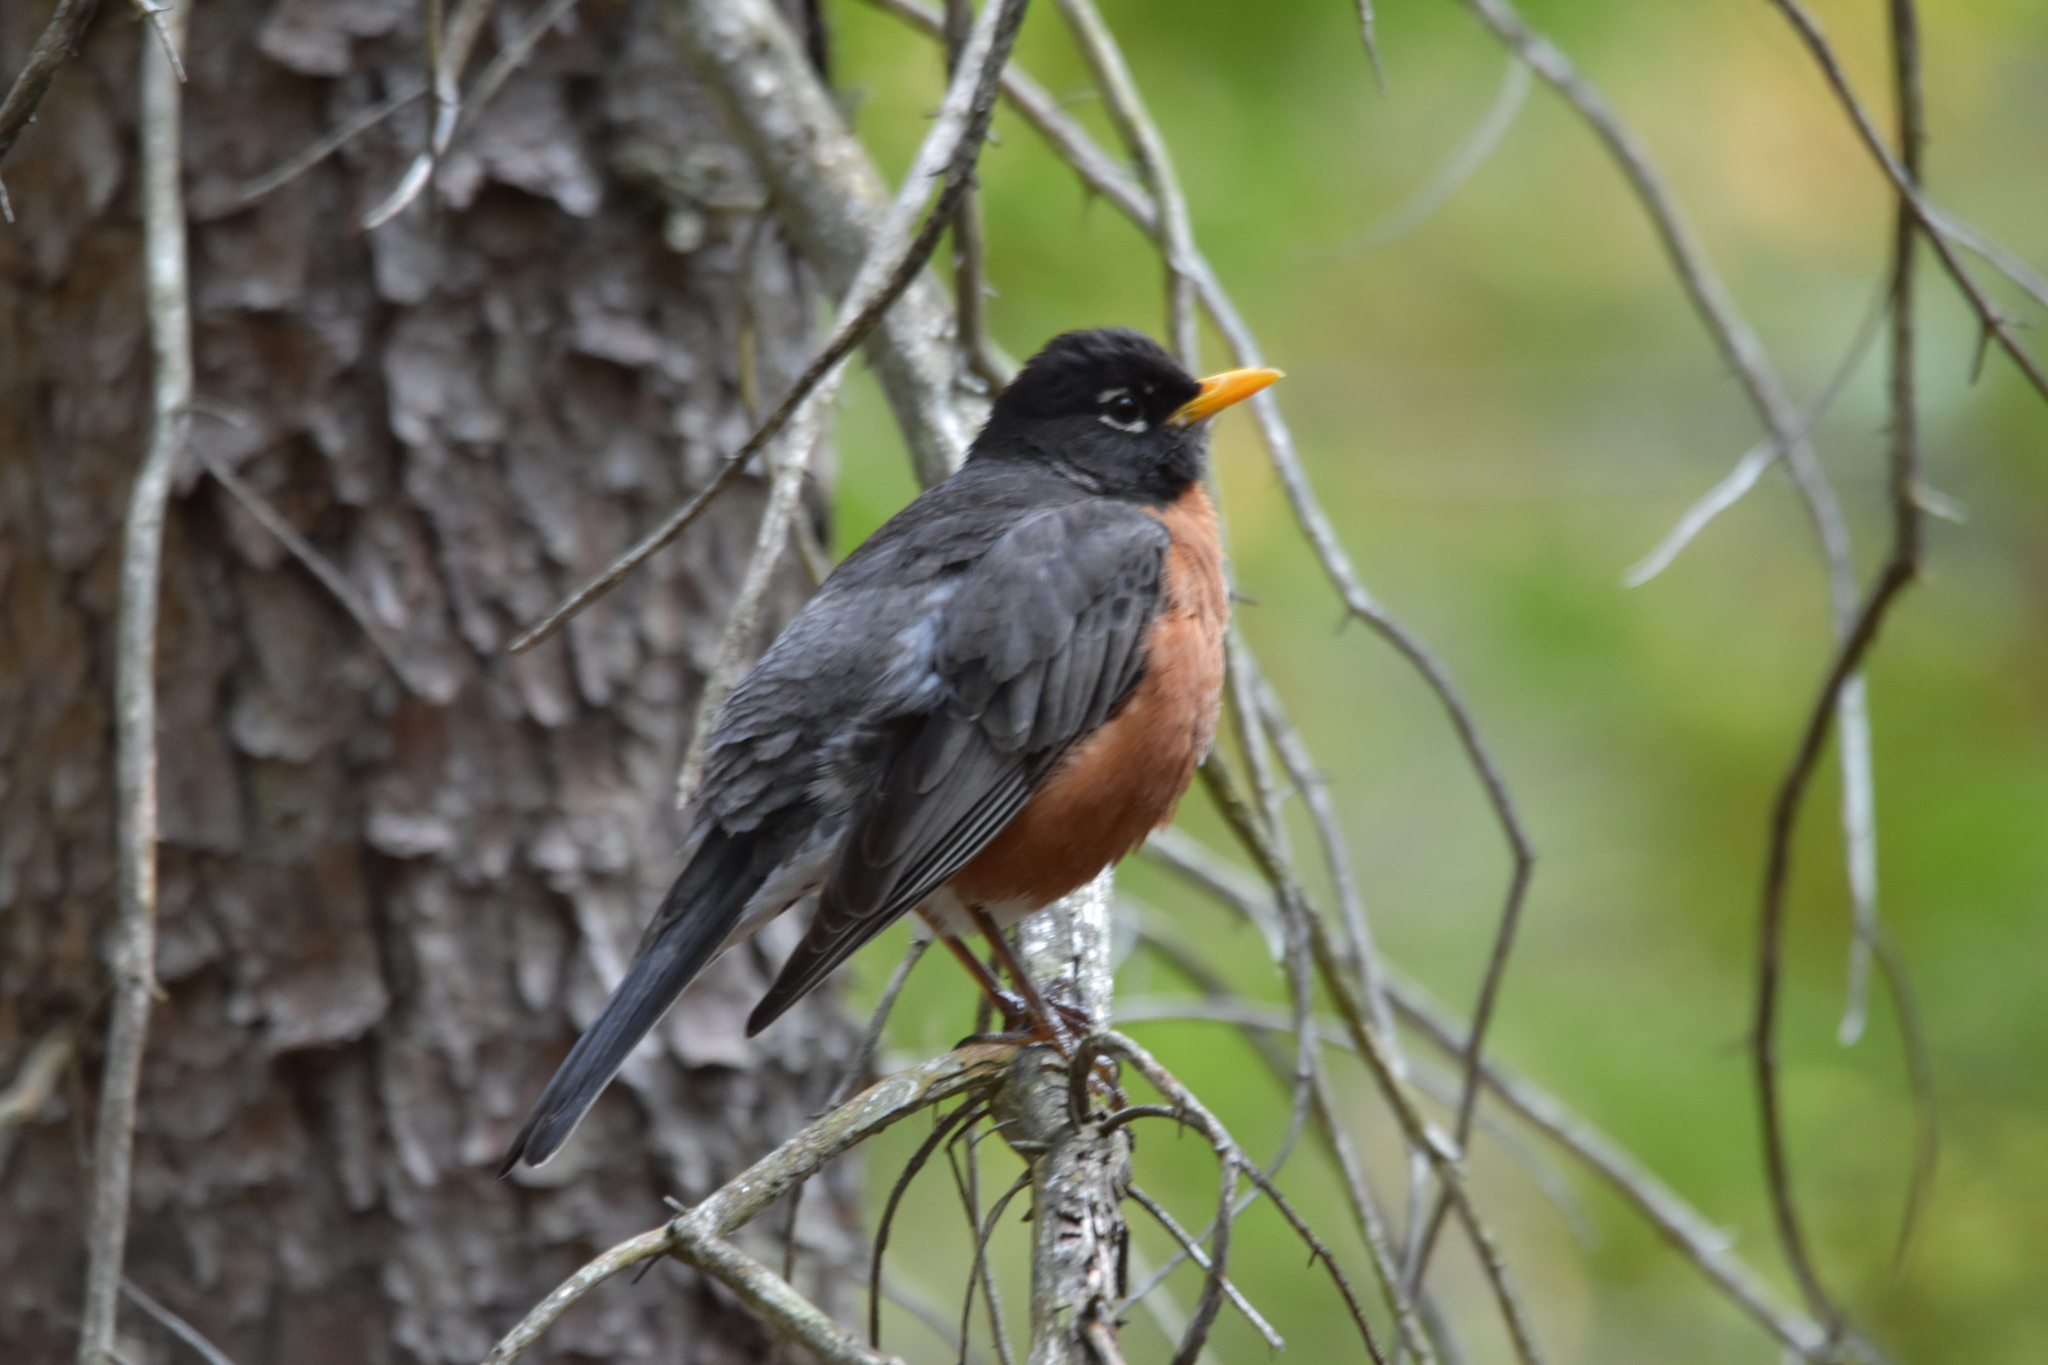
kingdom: Animalia
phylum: Chordata
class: Aves
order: Passeriformes
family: Turdidae
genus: Turdus
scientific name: Turdus migratorius
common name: American robin
